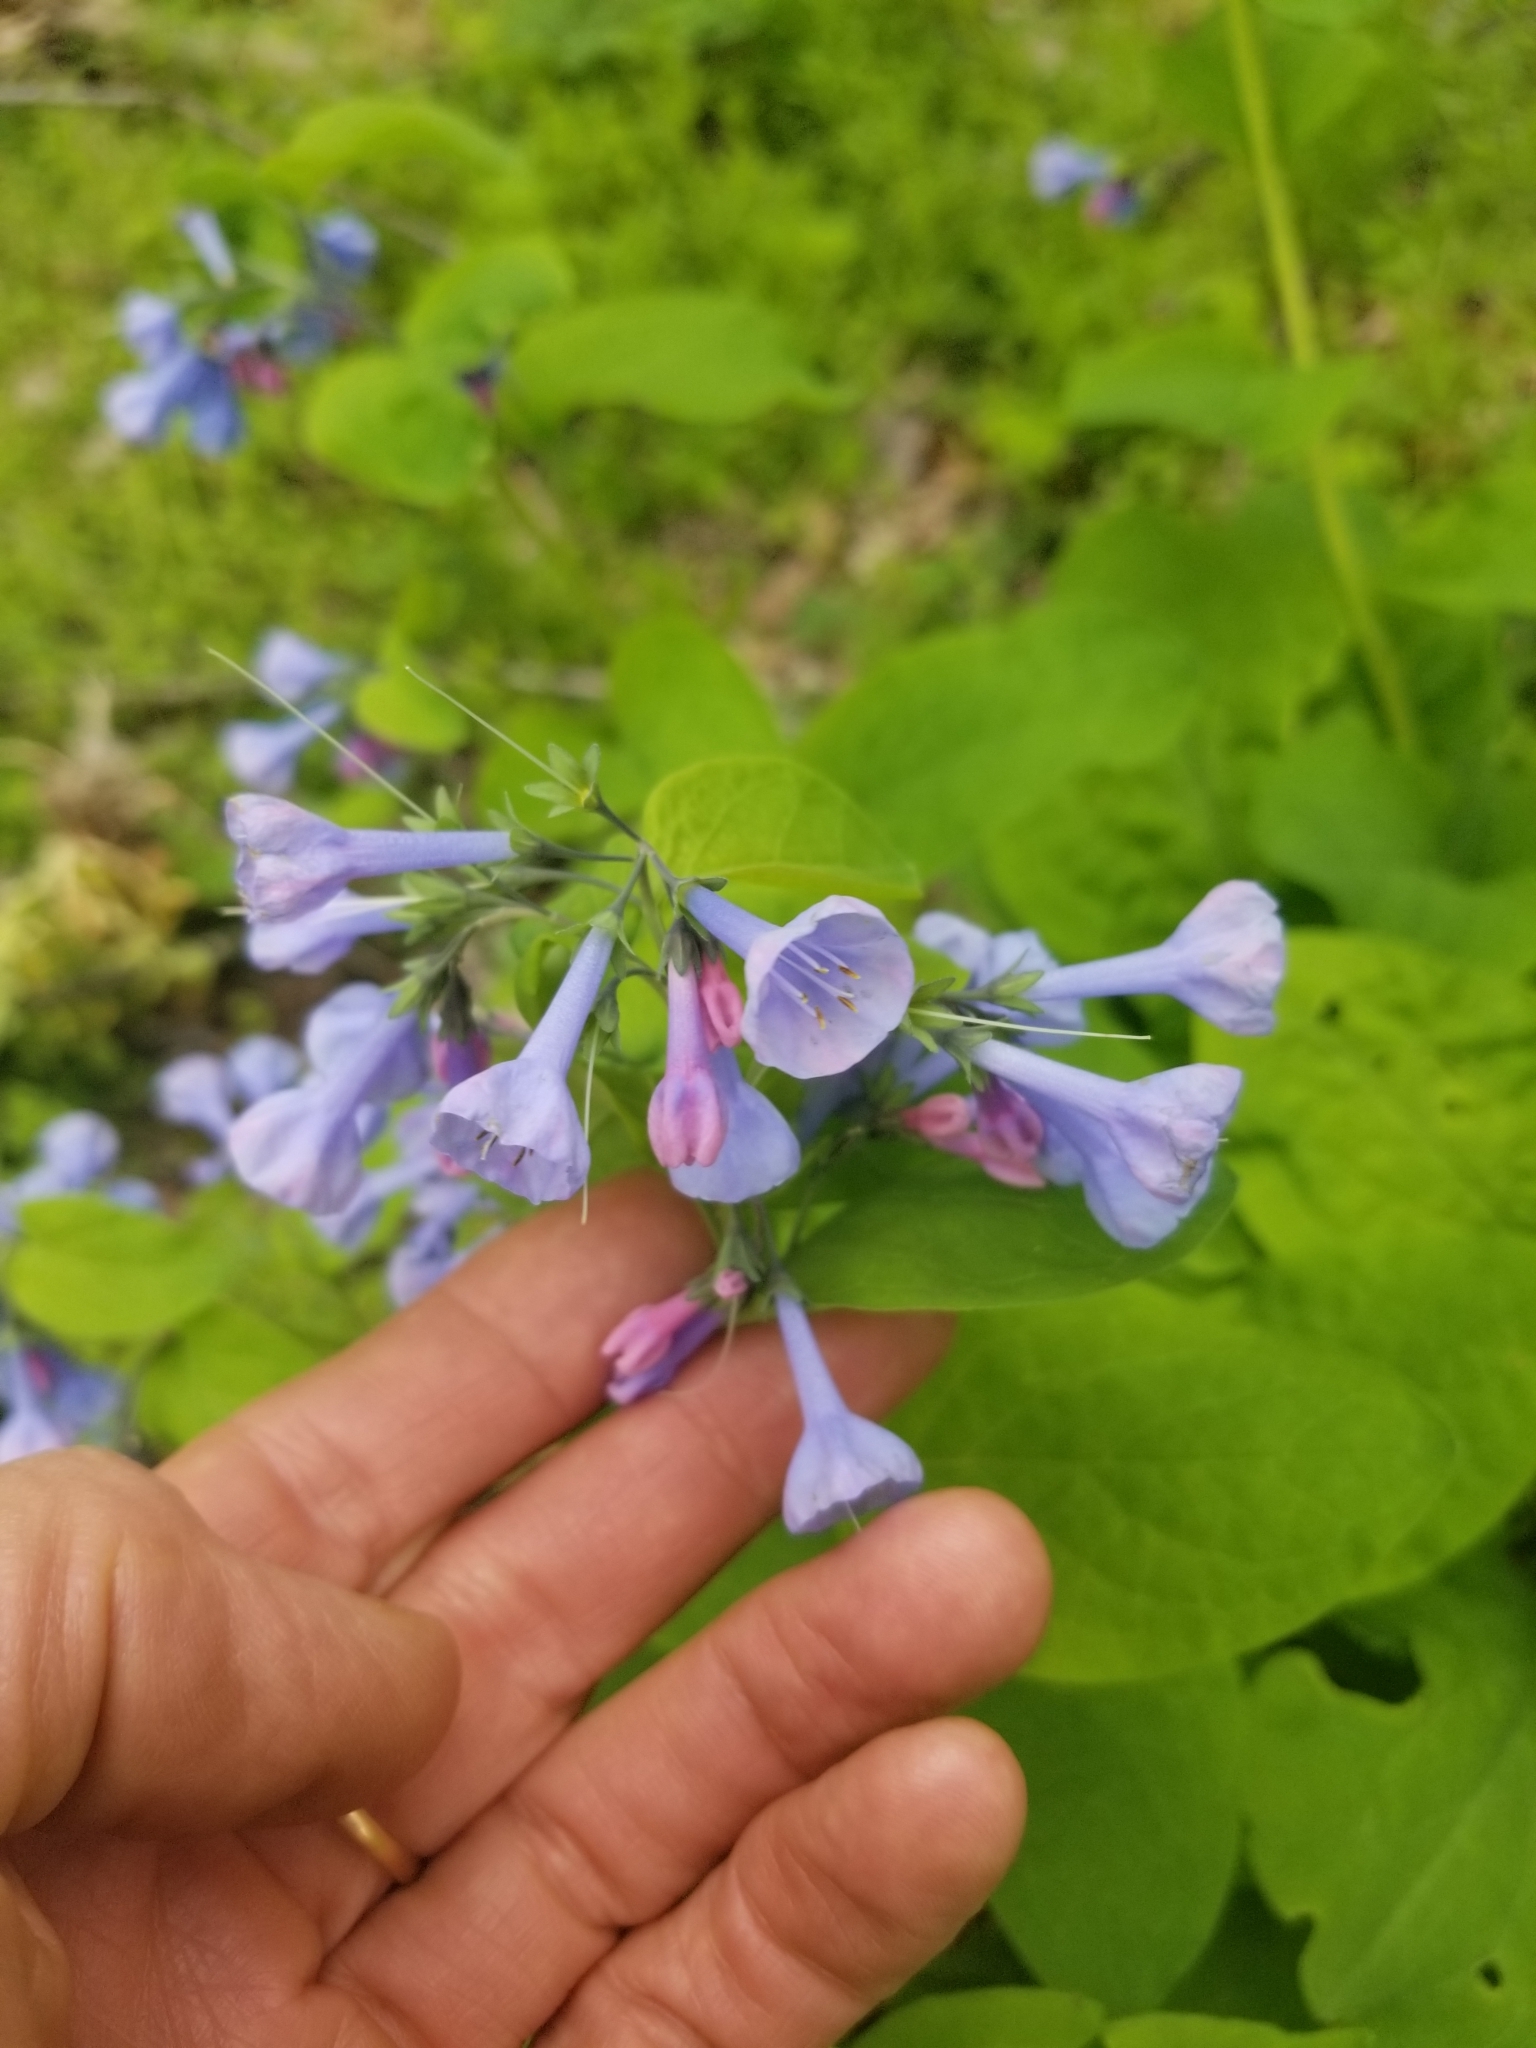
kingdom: Plantae
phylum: Tracheophyta
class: Magnoliopsida
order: Boraginales
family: Boraginaceae
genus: Mertensia
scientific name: Mertensia virginica
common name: Virginia bluebells
